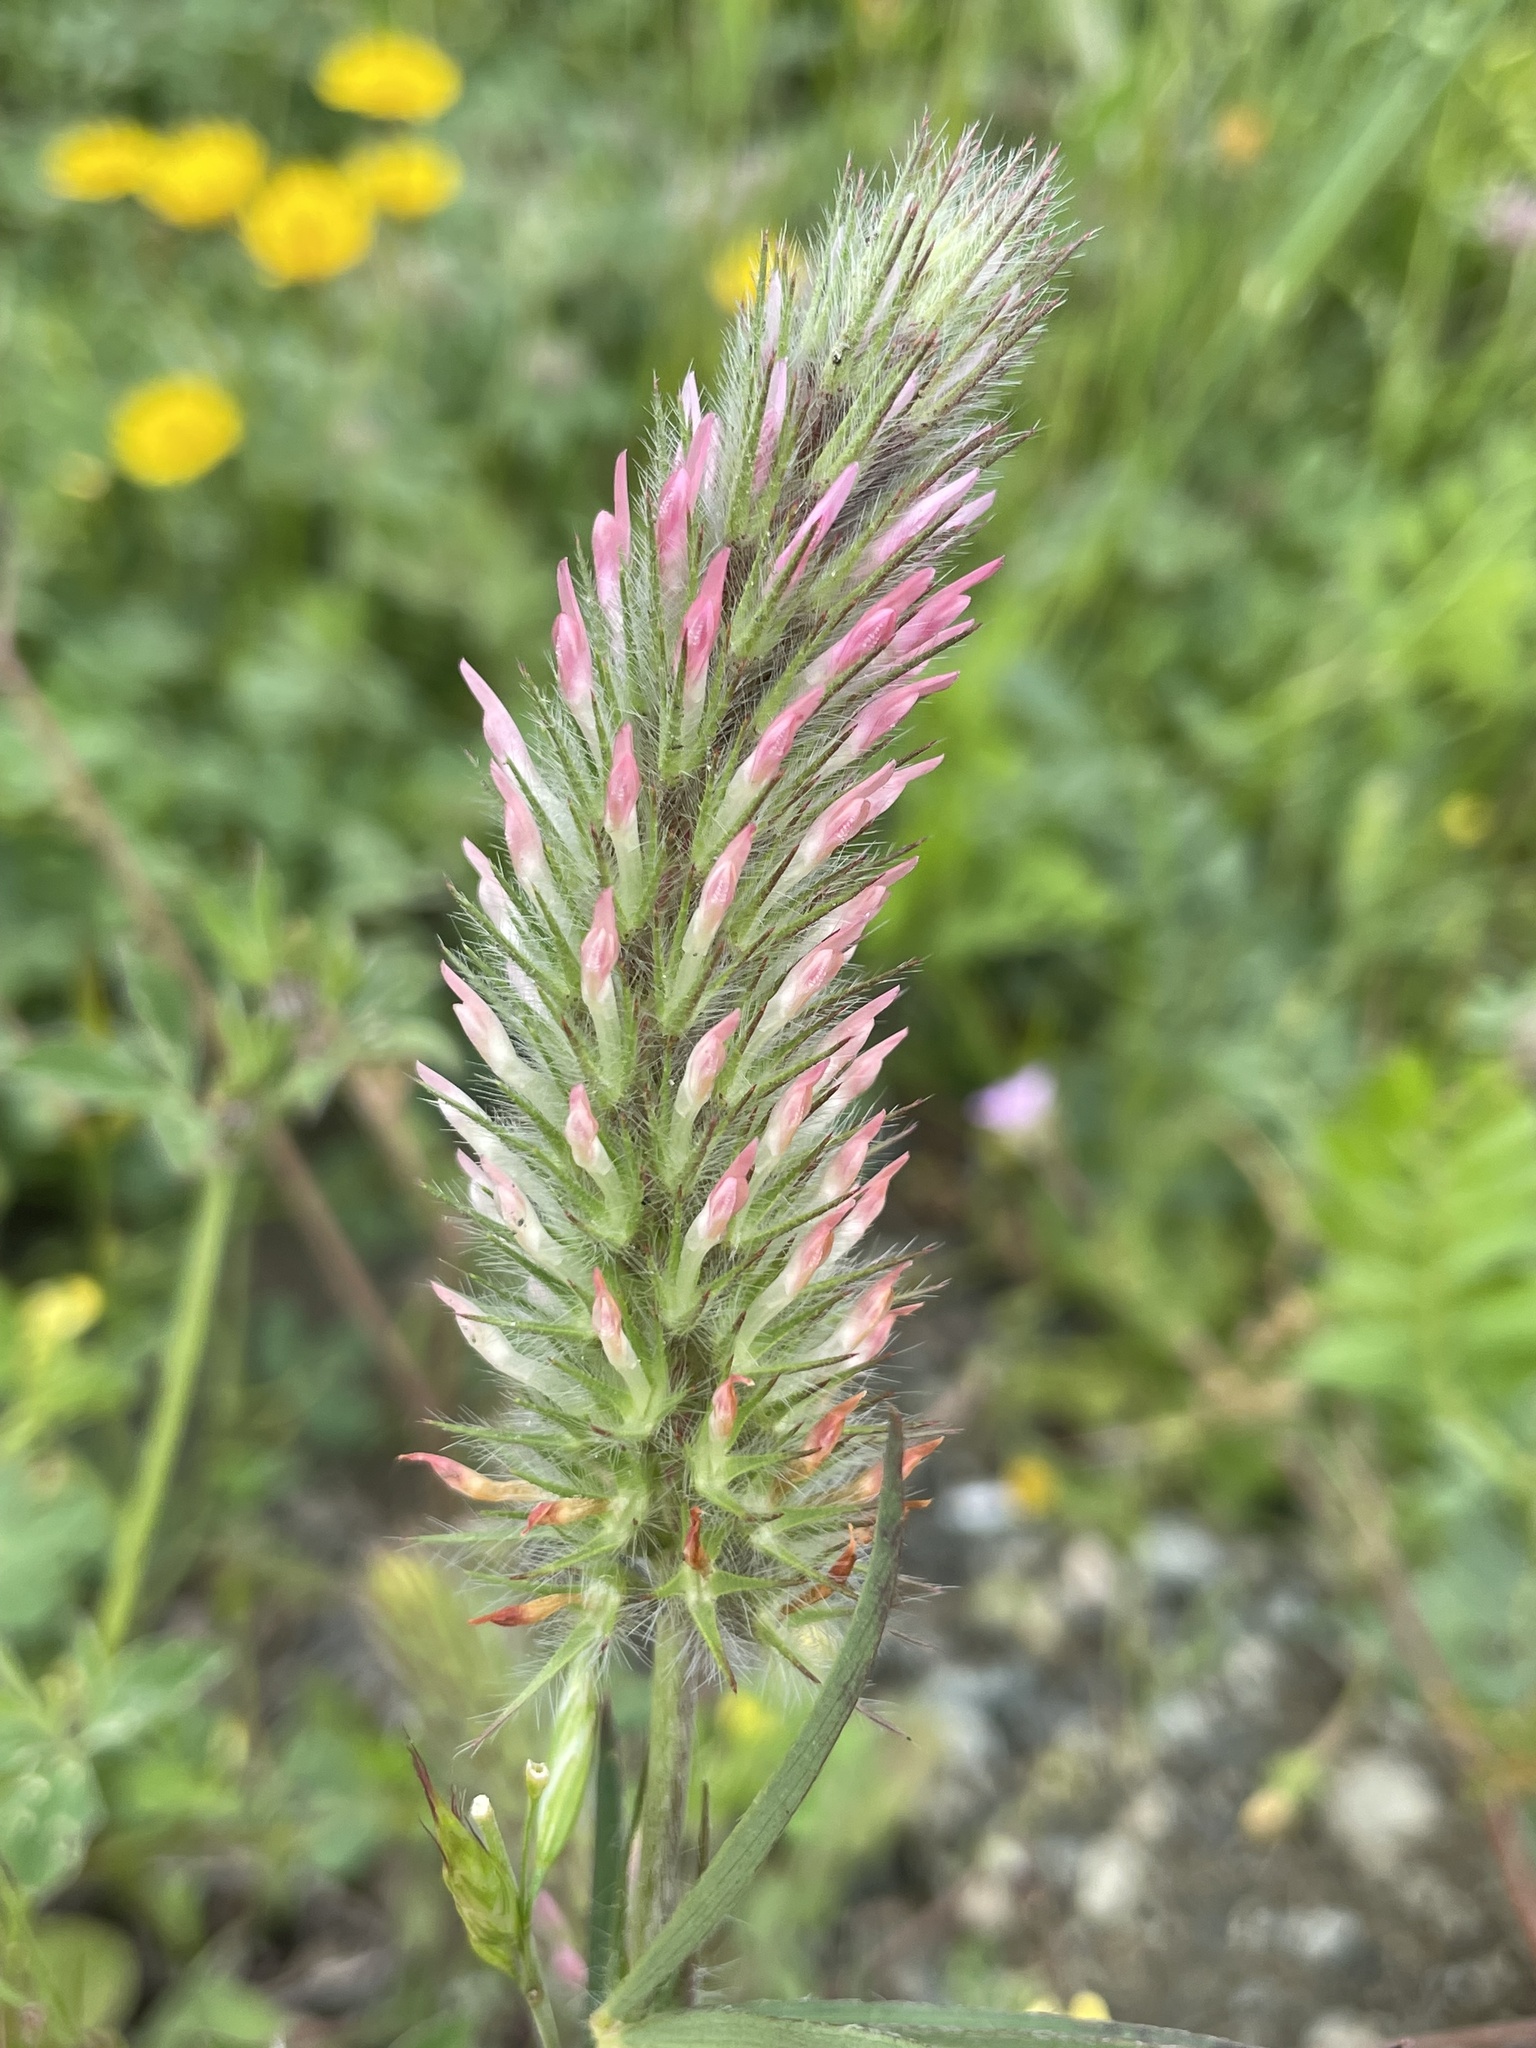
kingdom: Plantae
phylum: Tracheophyta
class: Magnoliopsida
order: Fabales
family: Fabaceae
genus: Trifolium
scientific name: Trifolium angustifolium
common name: Narrow clover
